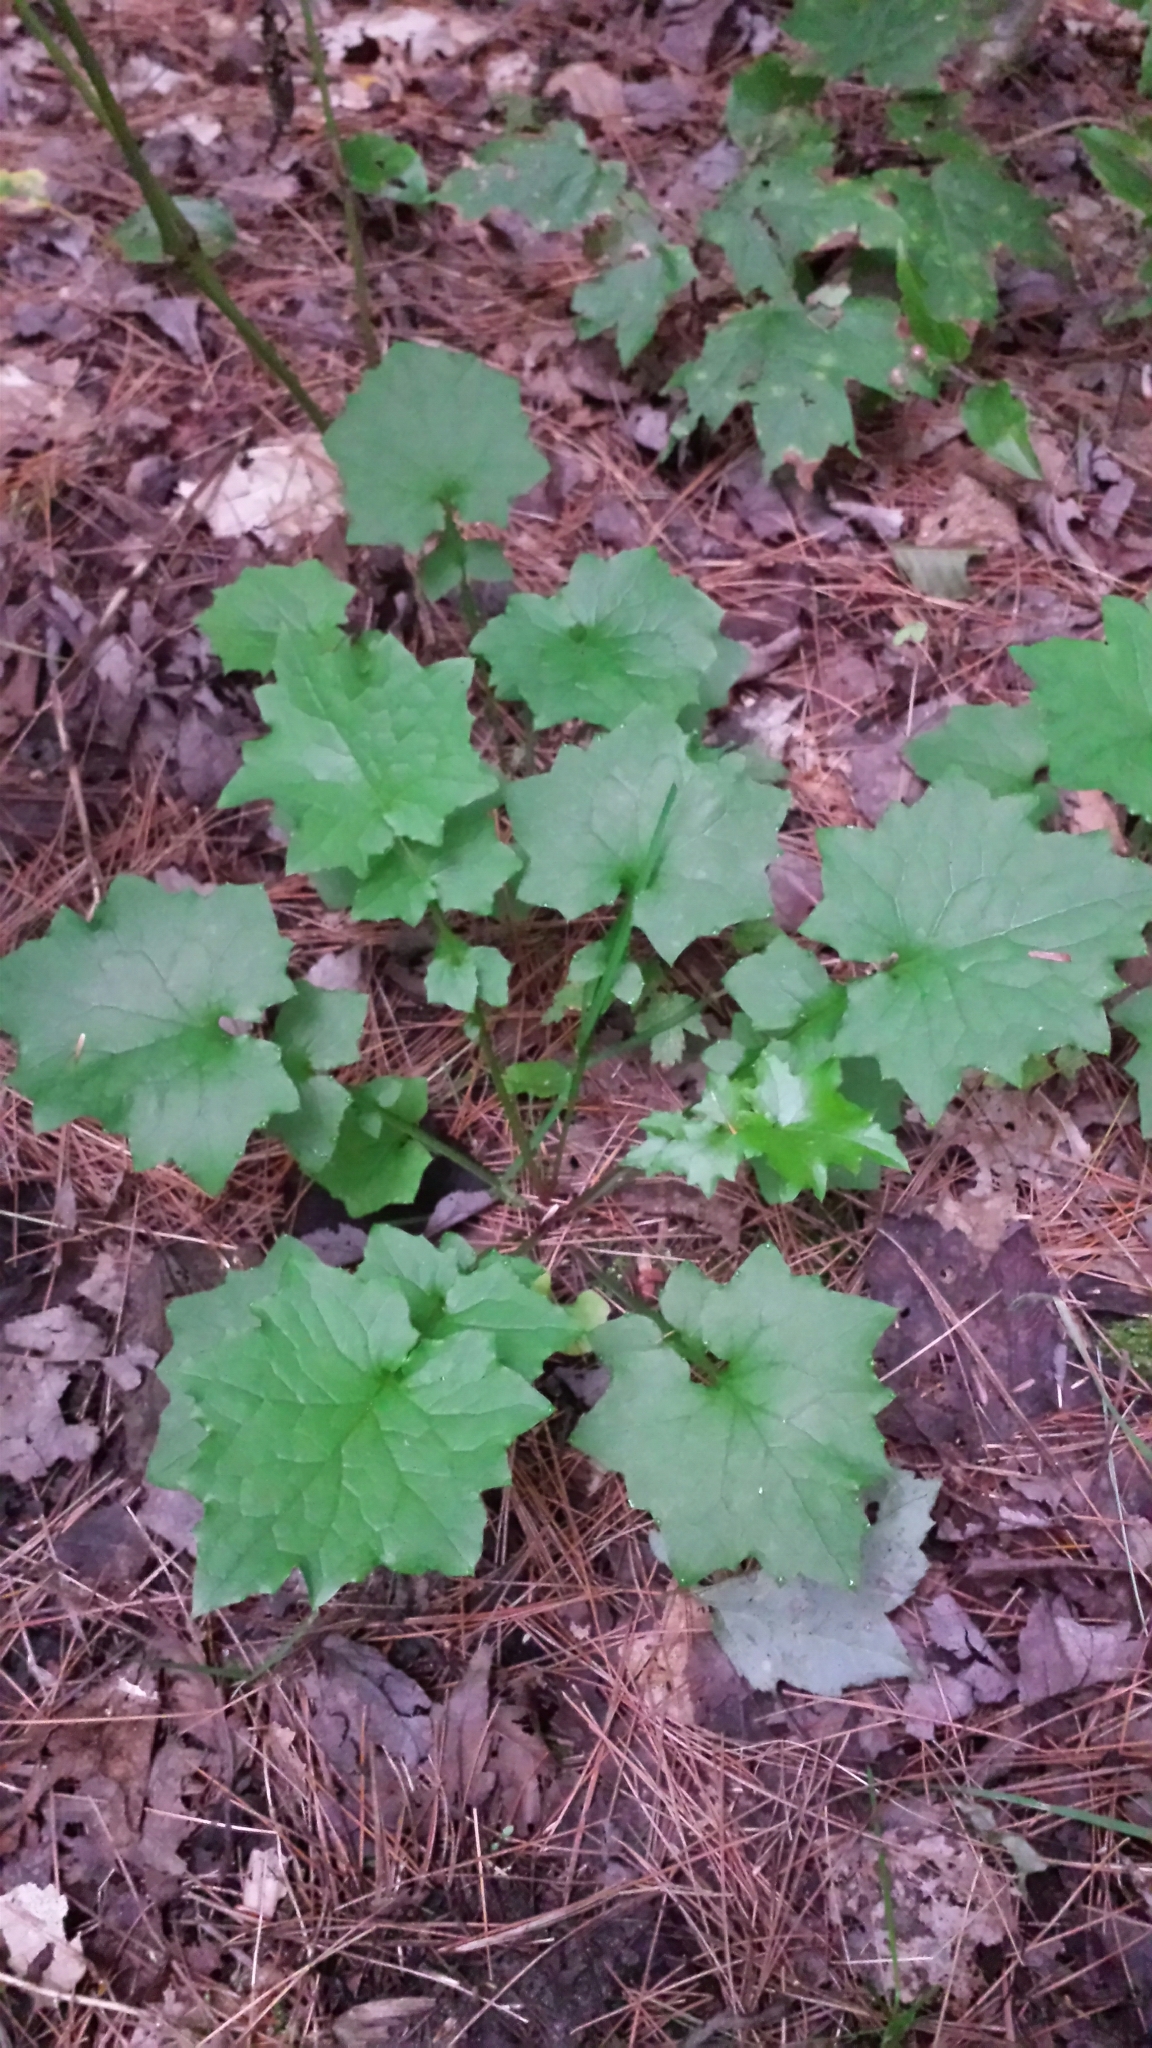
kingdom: Plantae
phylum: Tracheophyta
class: Magnoliopsida
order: Asterales
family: Asteraceae
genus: Mycelis
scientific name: Mycelis muralis
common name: Wall lettuce
